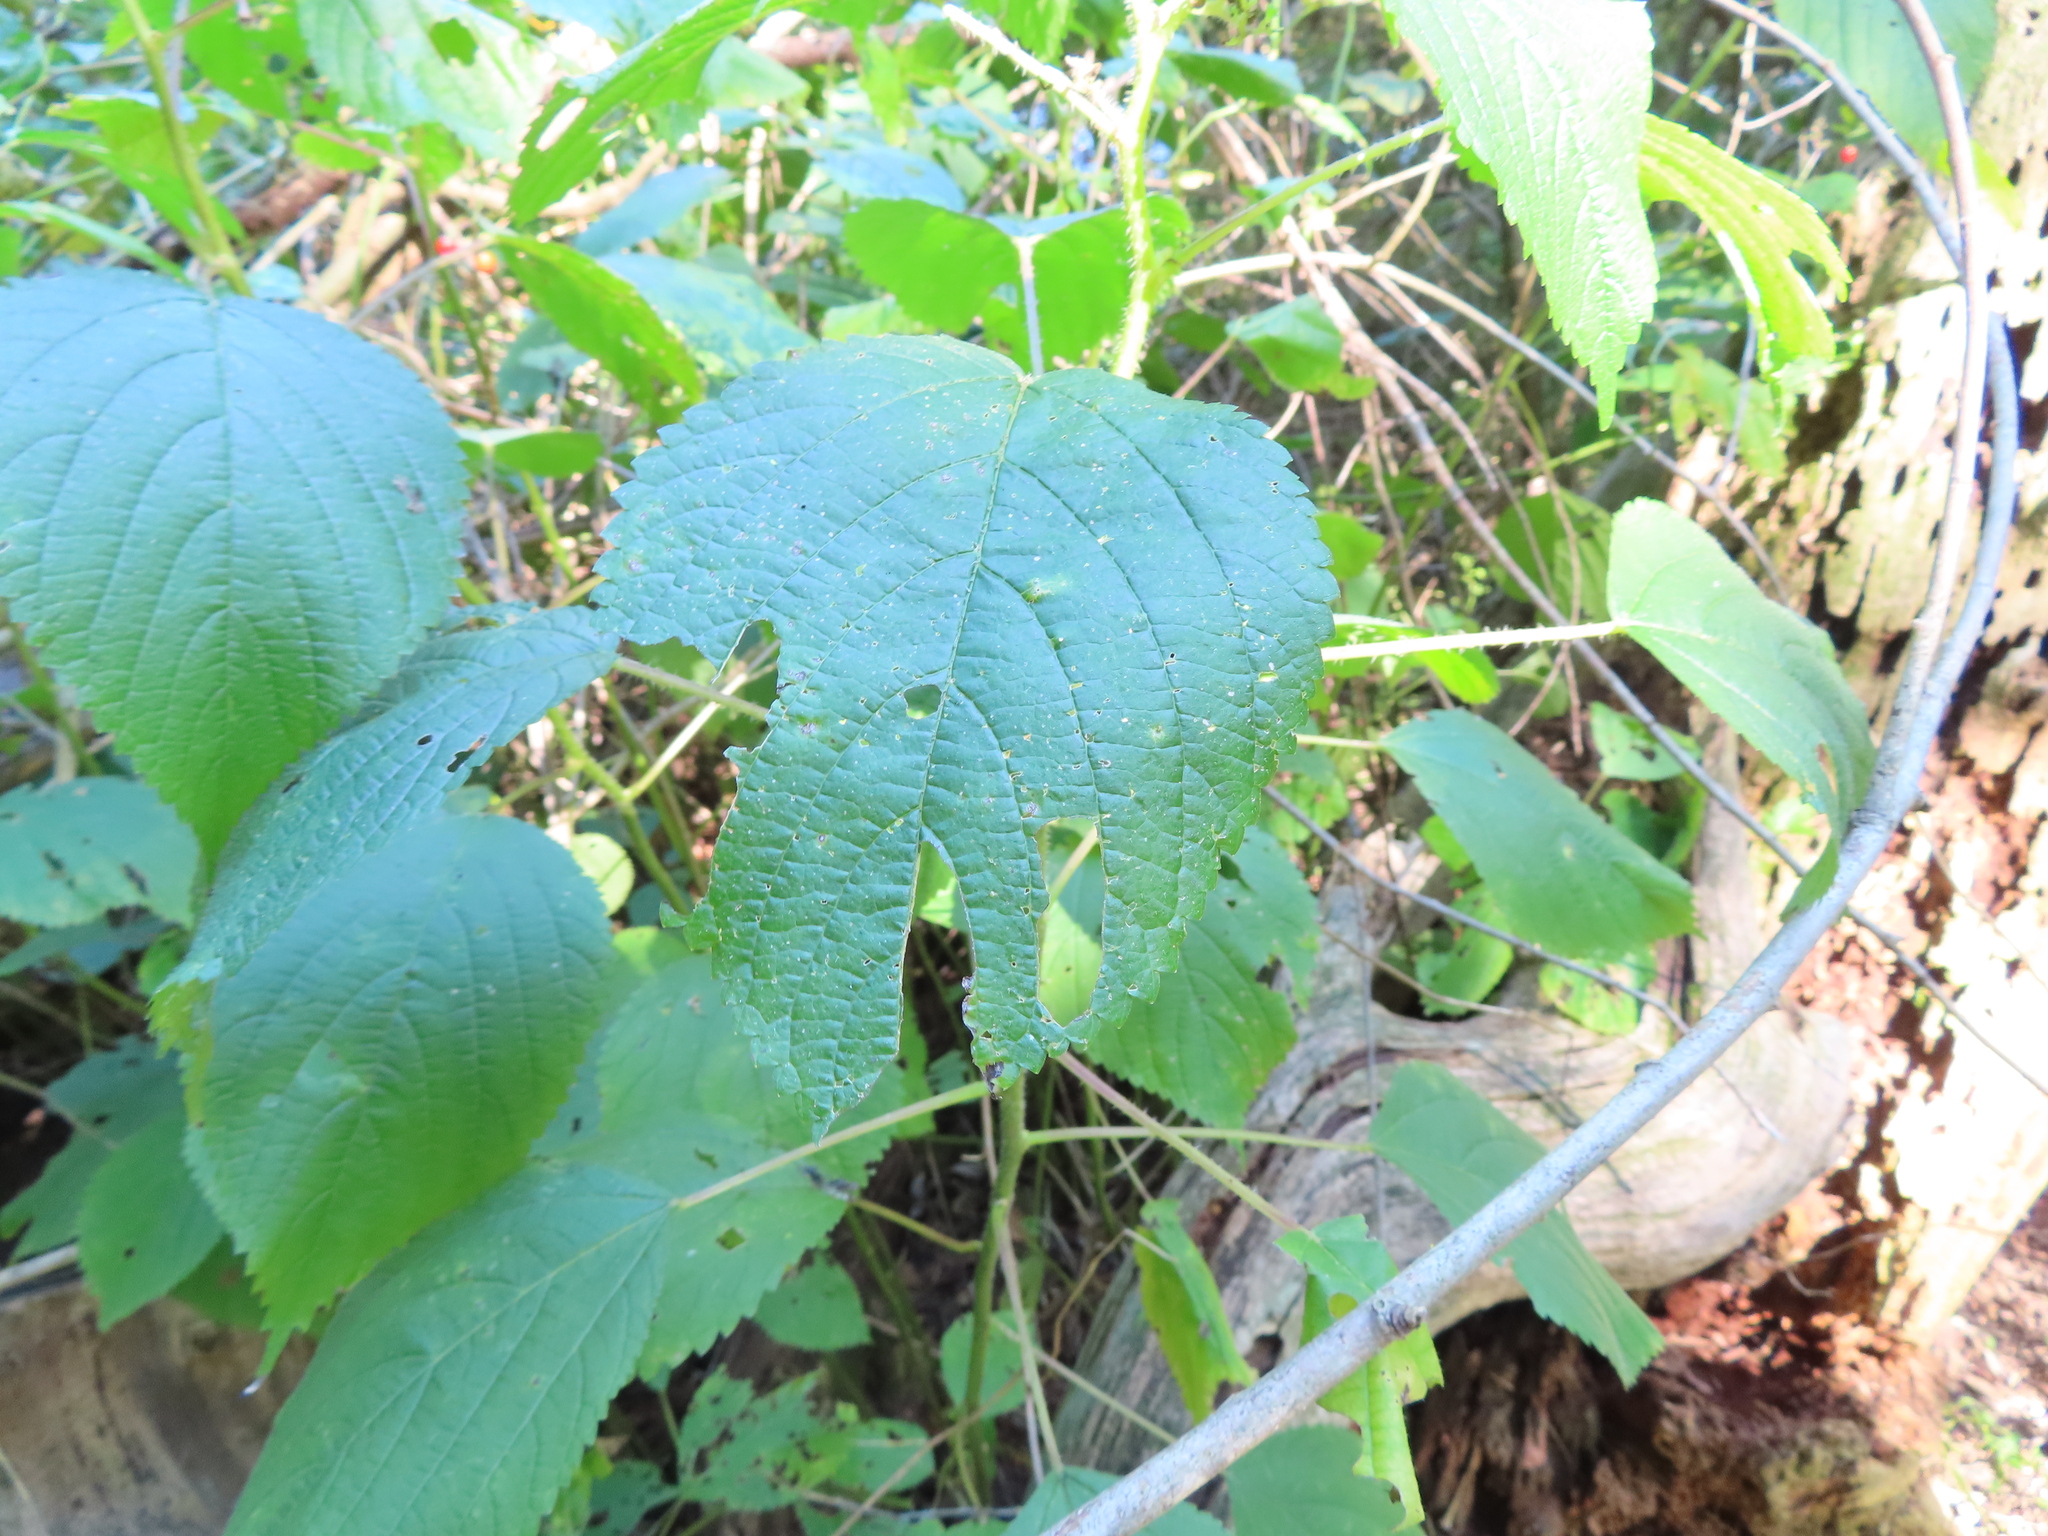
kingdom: Plantae
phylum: Tracheophyta
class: Magnoliopsida
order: Rosales
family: Urticaceae
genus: Laportea
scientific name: Laportea canadensis
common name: Canada nettle
